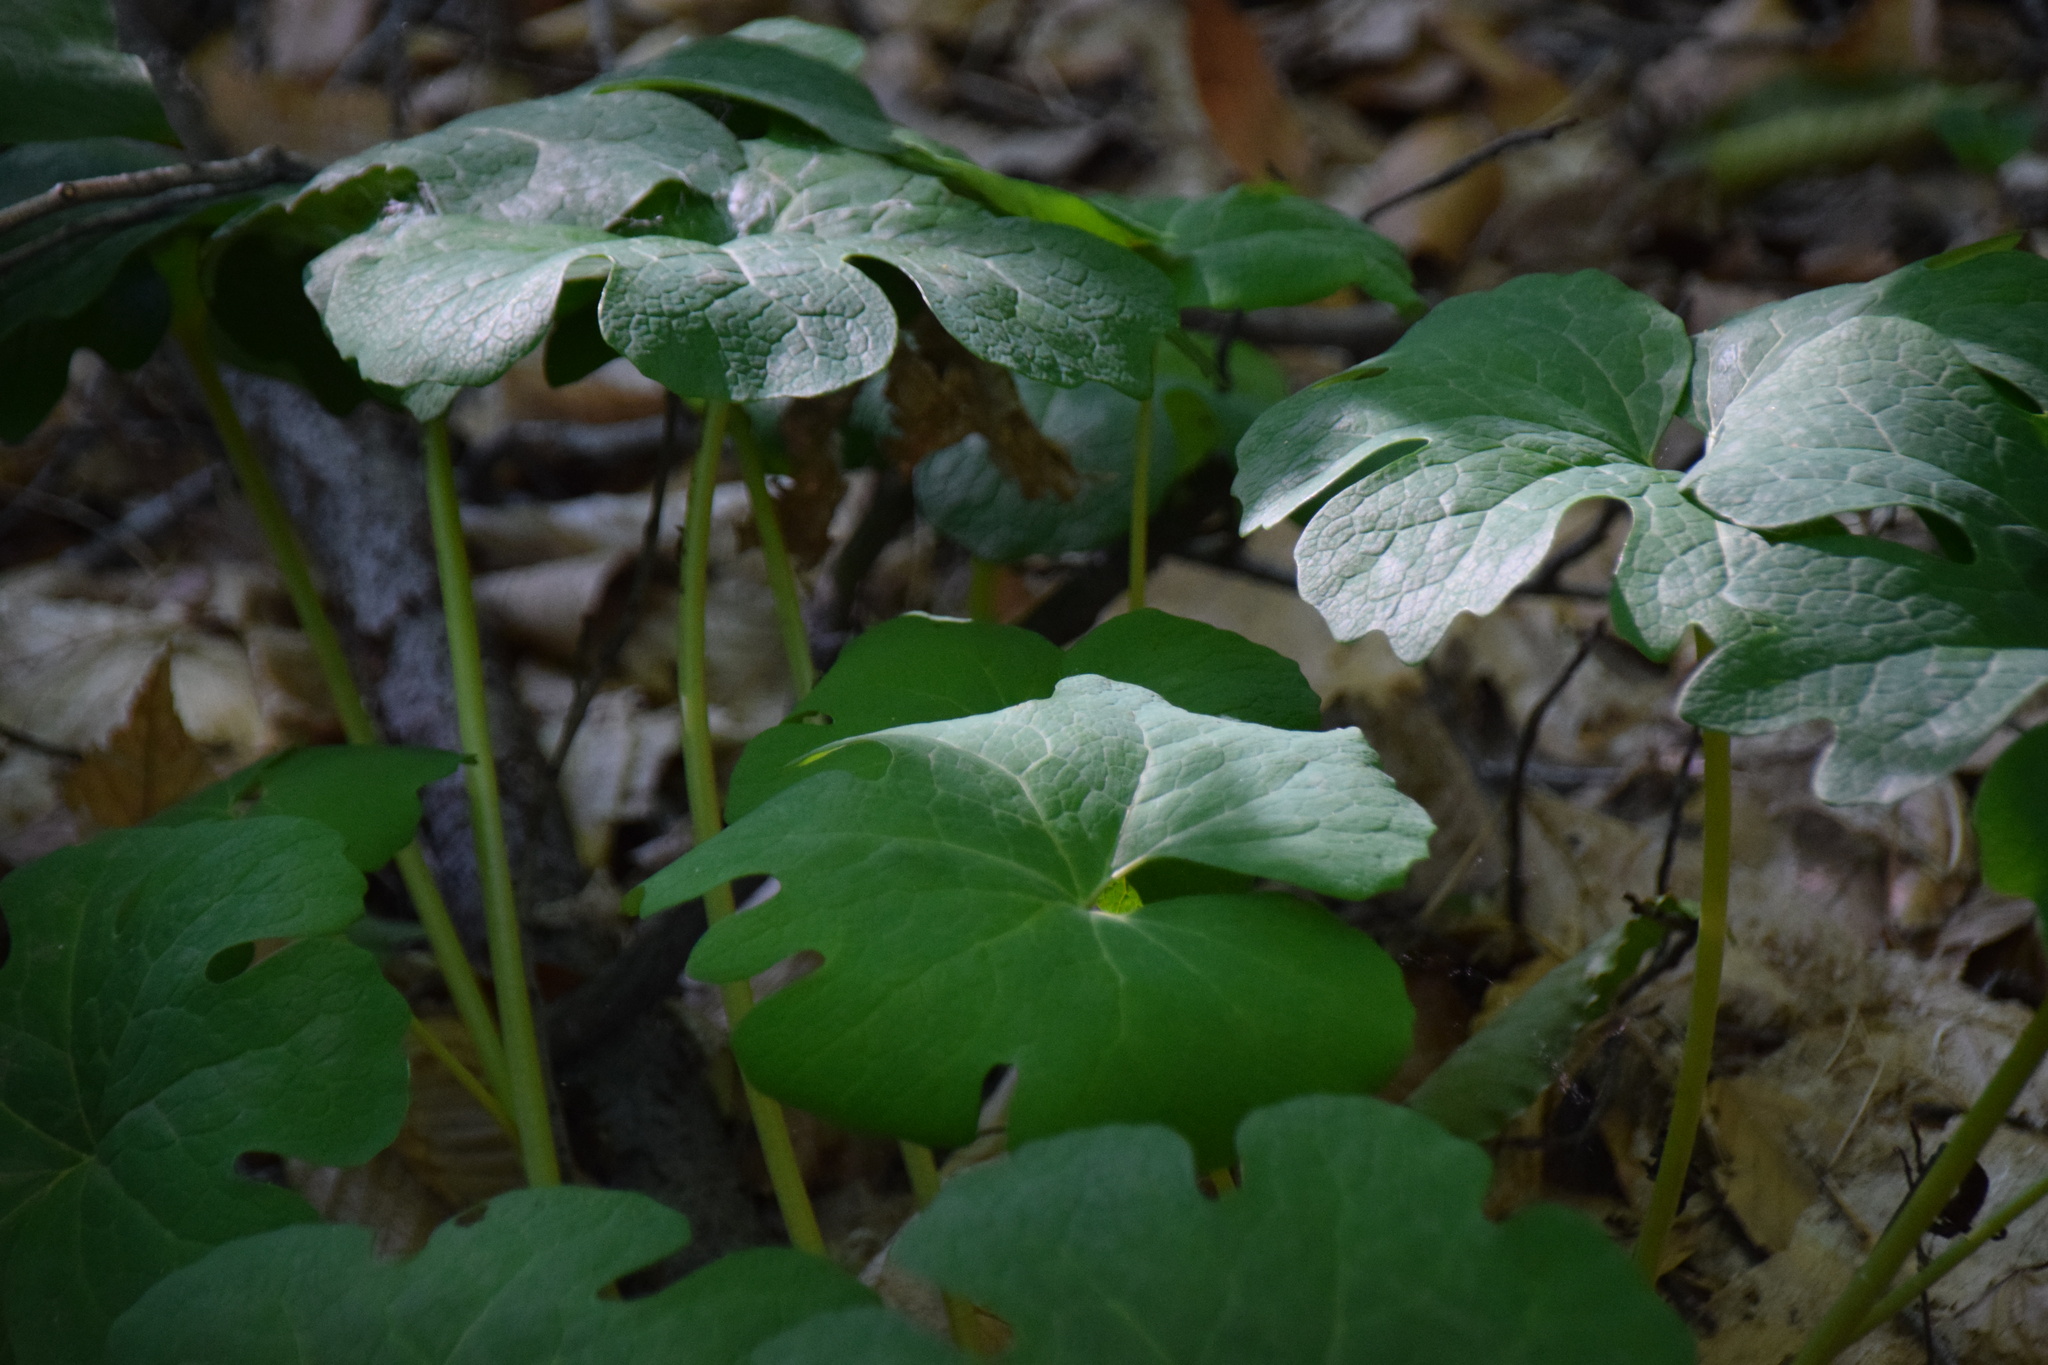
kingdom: Plantae
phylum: Tracheophyta
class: Magnoliopsida
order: Ranunculales
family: Papaveraceae
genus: Sanguinaria
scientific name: Sanguinaria canadensis
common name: Bloodroot
